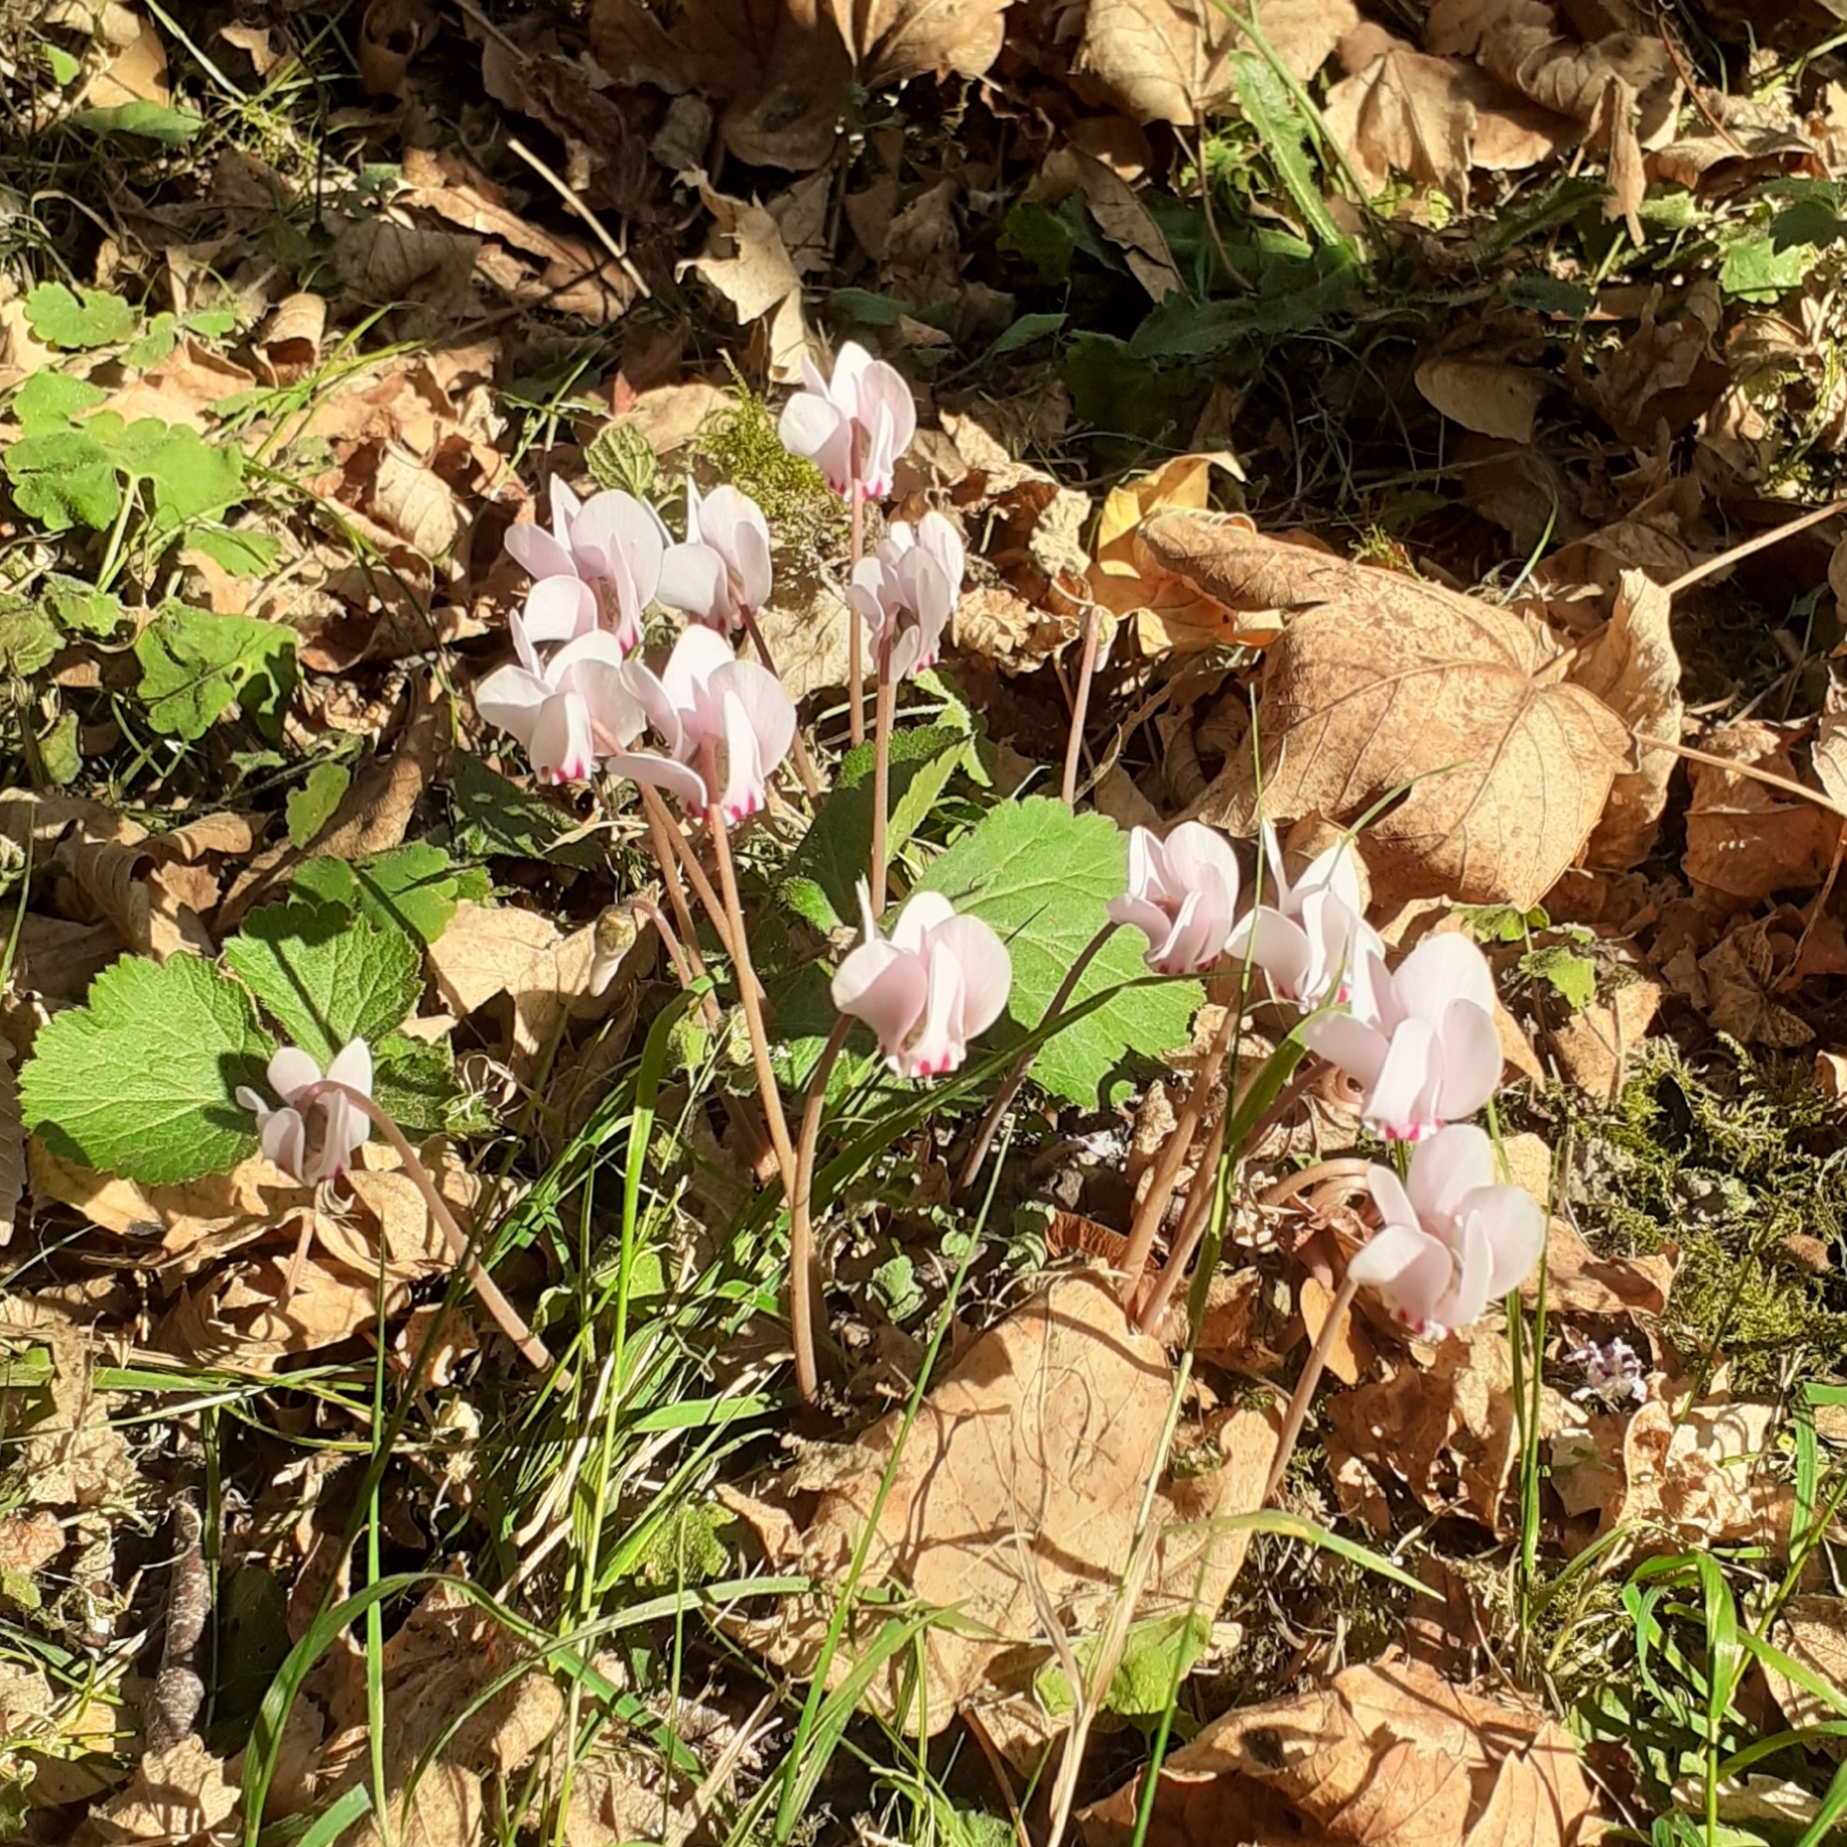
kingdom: Plantae
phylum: Tracheophyta
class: Magnoliopsida
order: Ericales
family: Primulaceae
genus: Cyclamen
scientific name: Cyclamen hederifolium
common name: Sowbread
